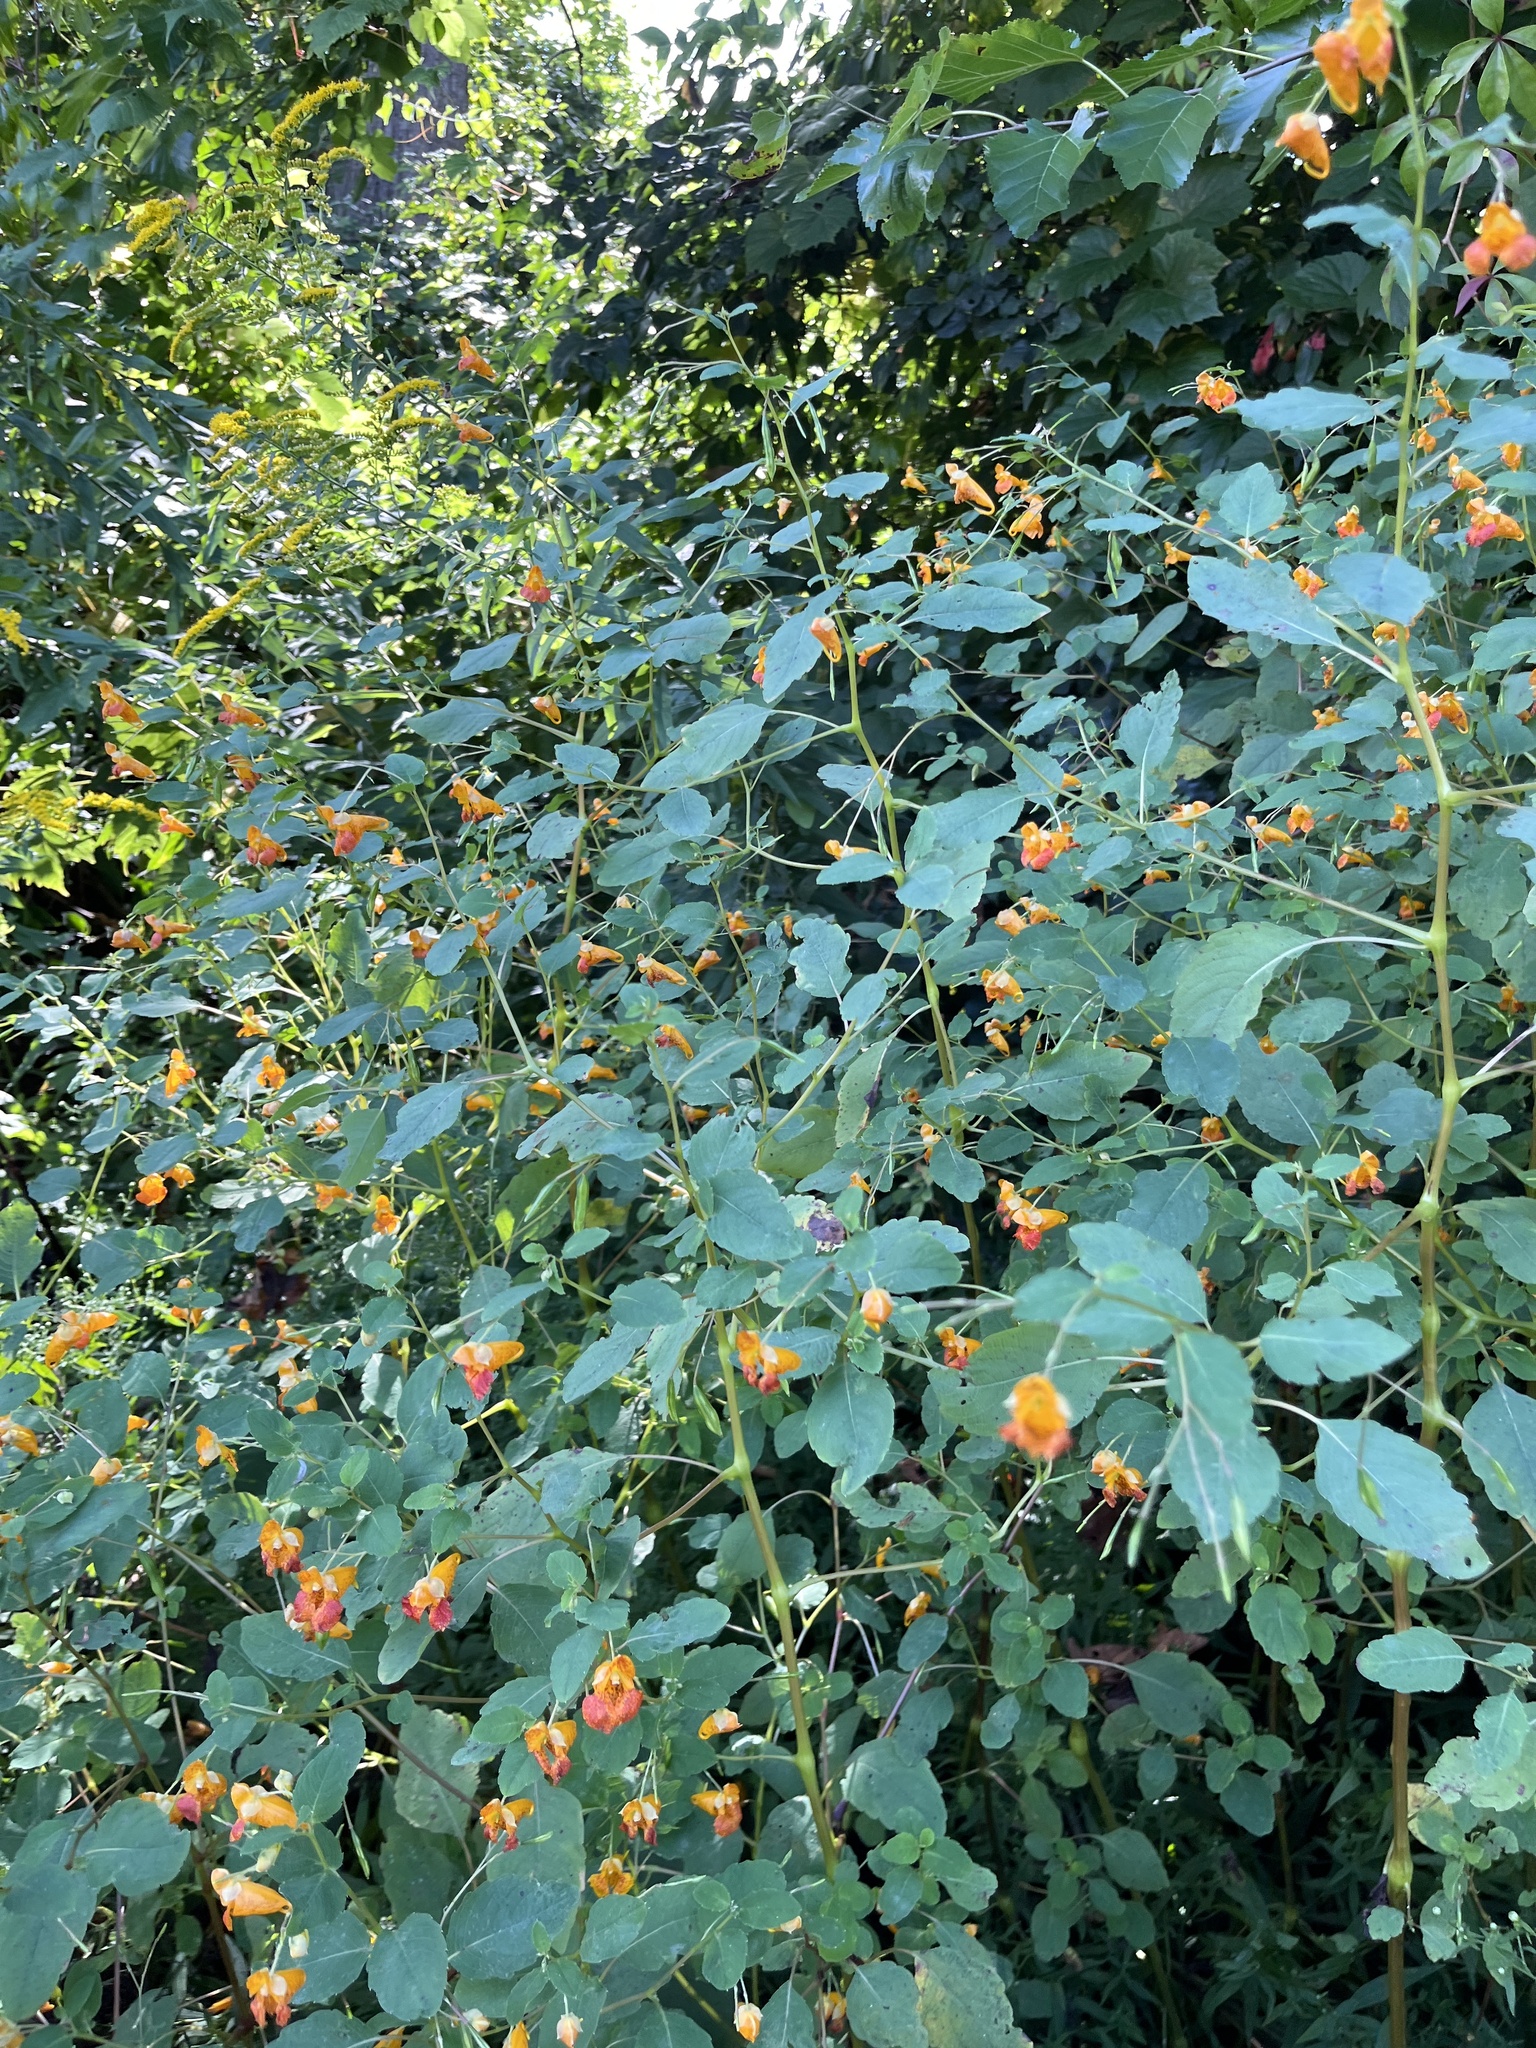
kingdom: Plantae
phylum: Tracheophyta
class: Magnoliopsida
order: Ericales
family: Balsaminaceae
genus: Impatiens
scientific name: Impatiens capensis
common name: Orange balsam
